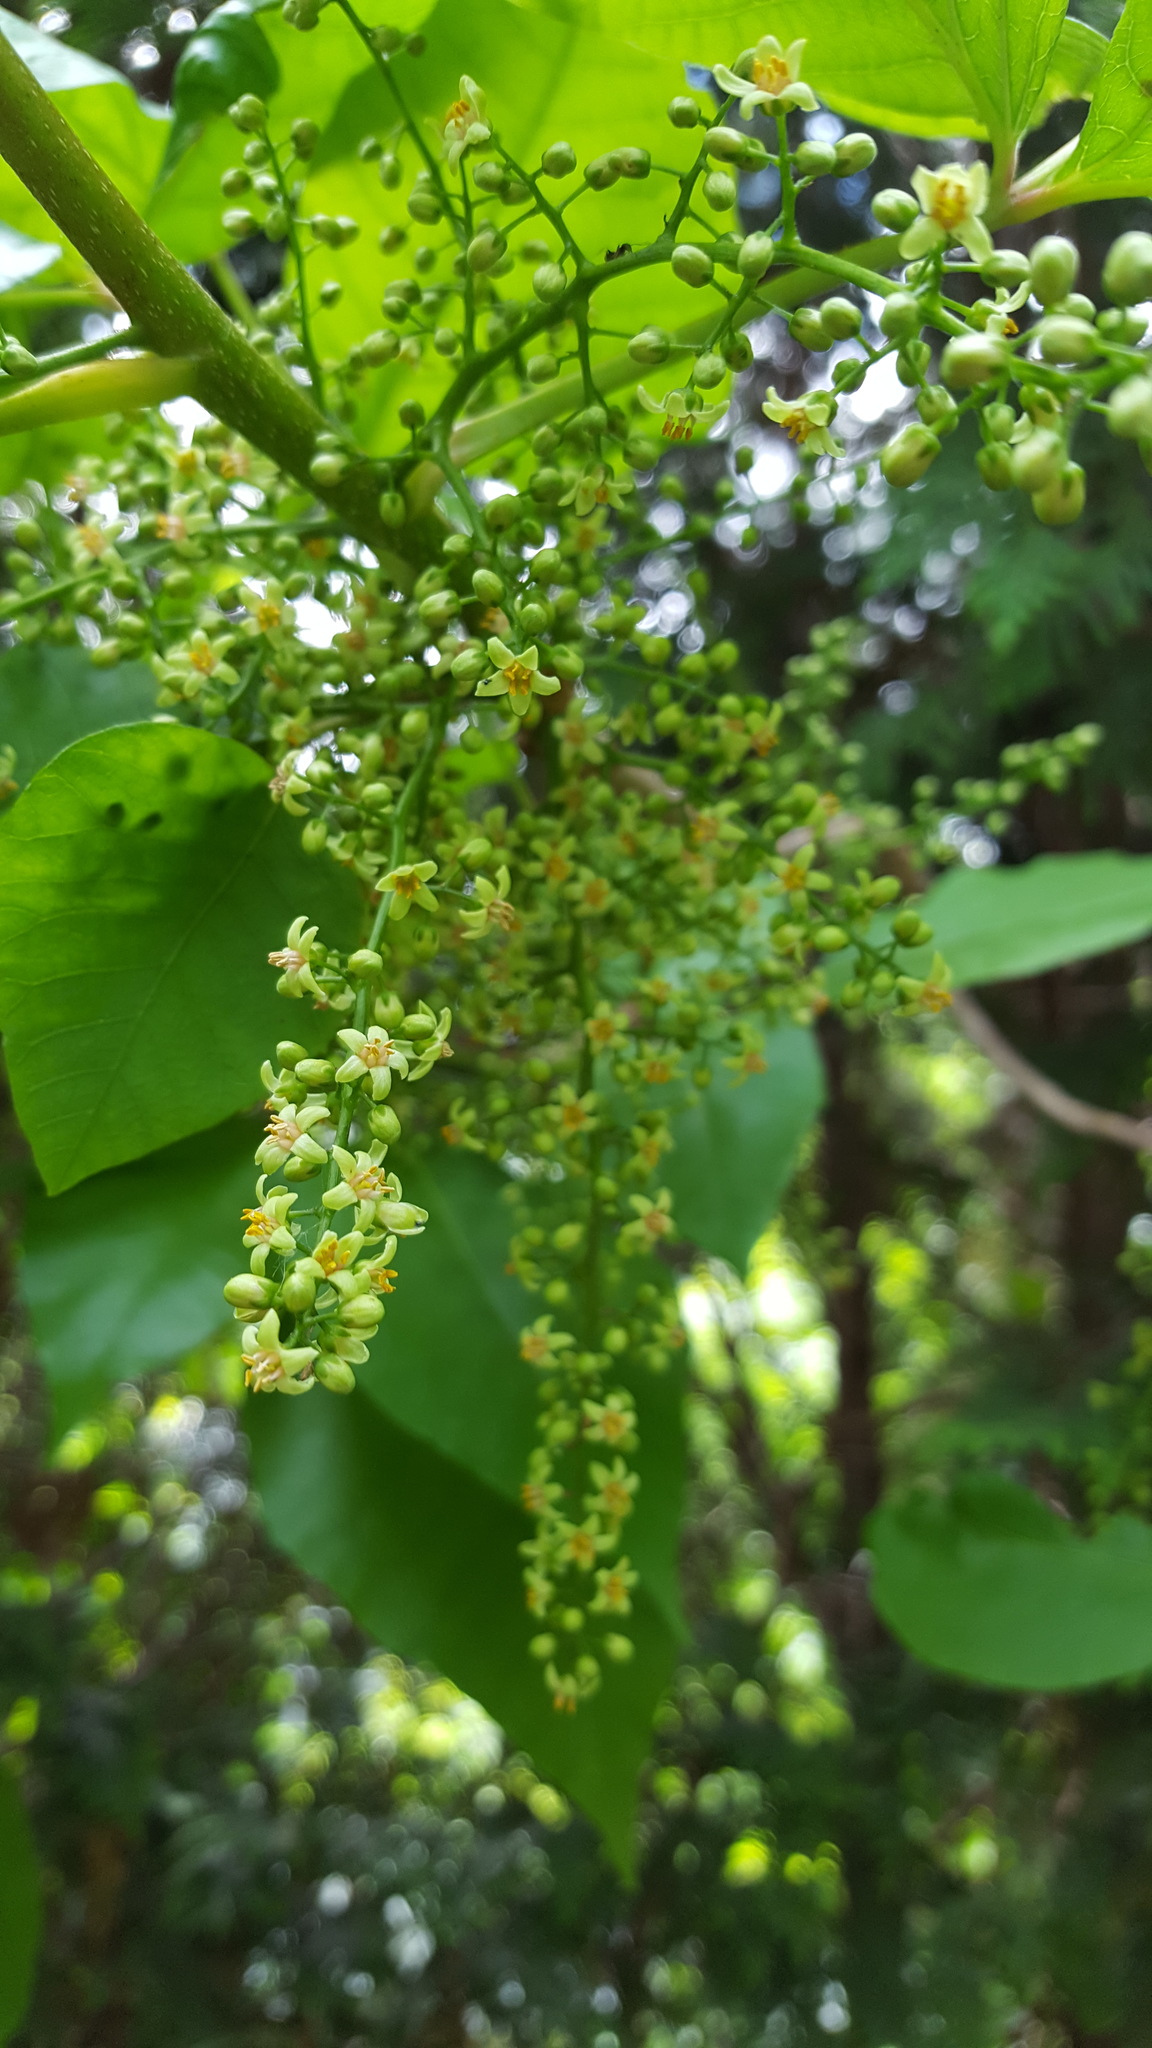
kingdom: Plantae
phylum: Tracheophyta
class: Magnoliopsida
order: Sapindales
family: Anacardiaceae
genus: Toxicodendron
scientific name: Toxicodendron radicans
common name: Poison ivy
